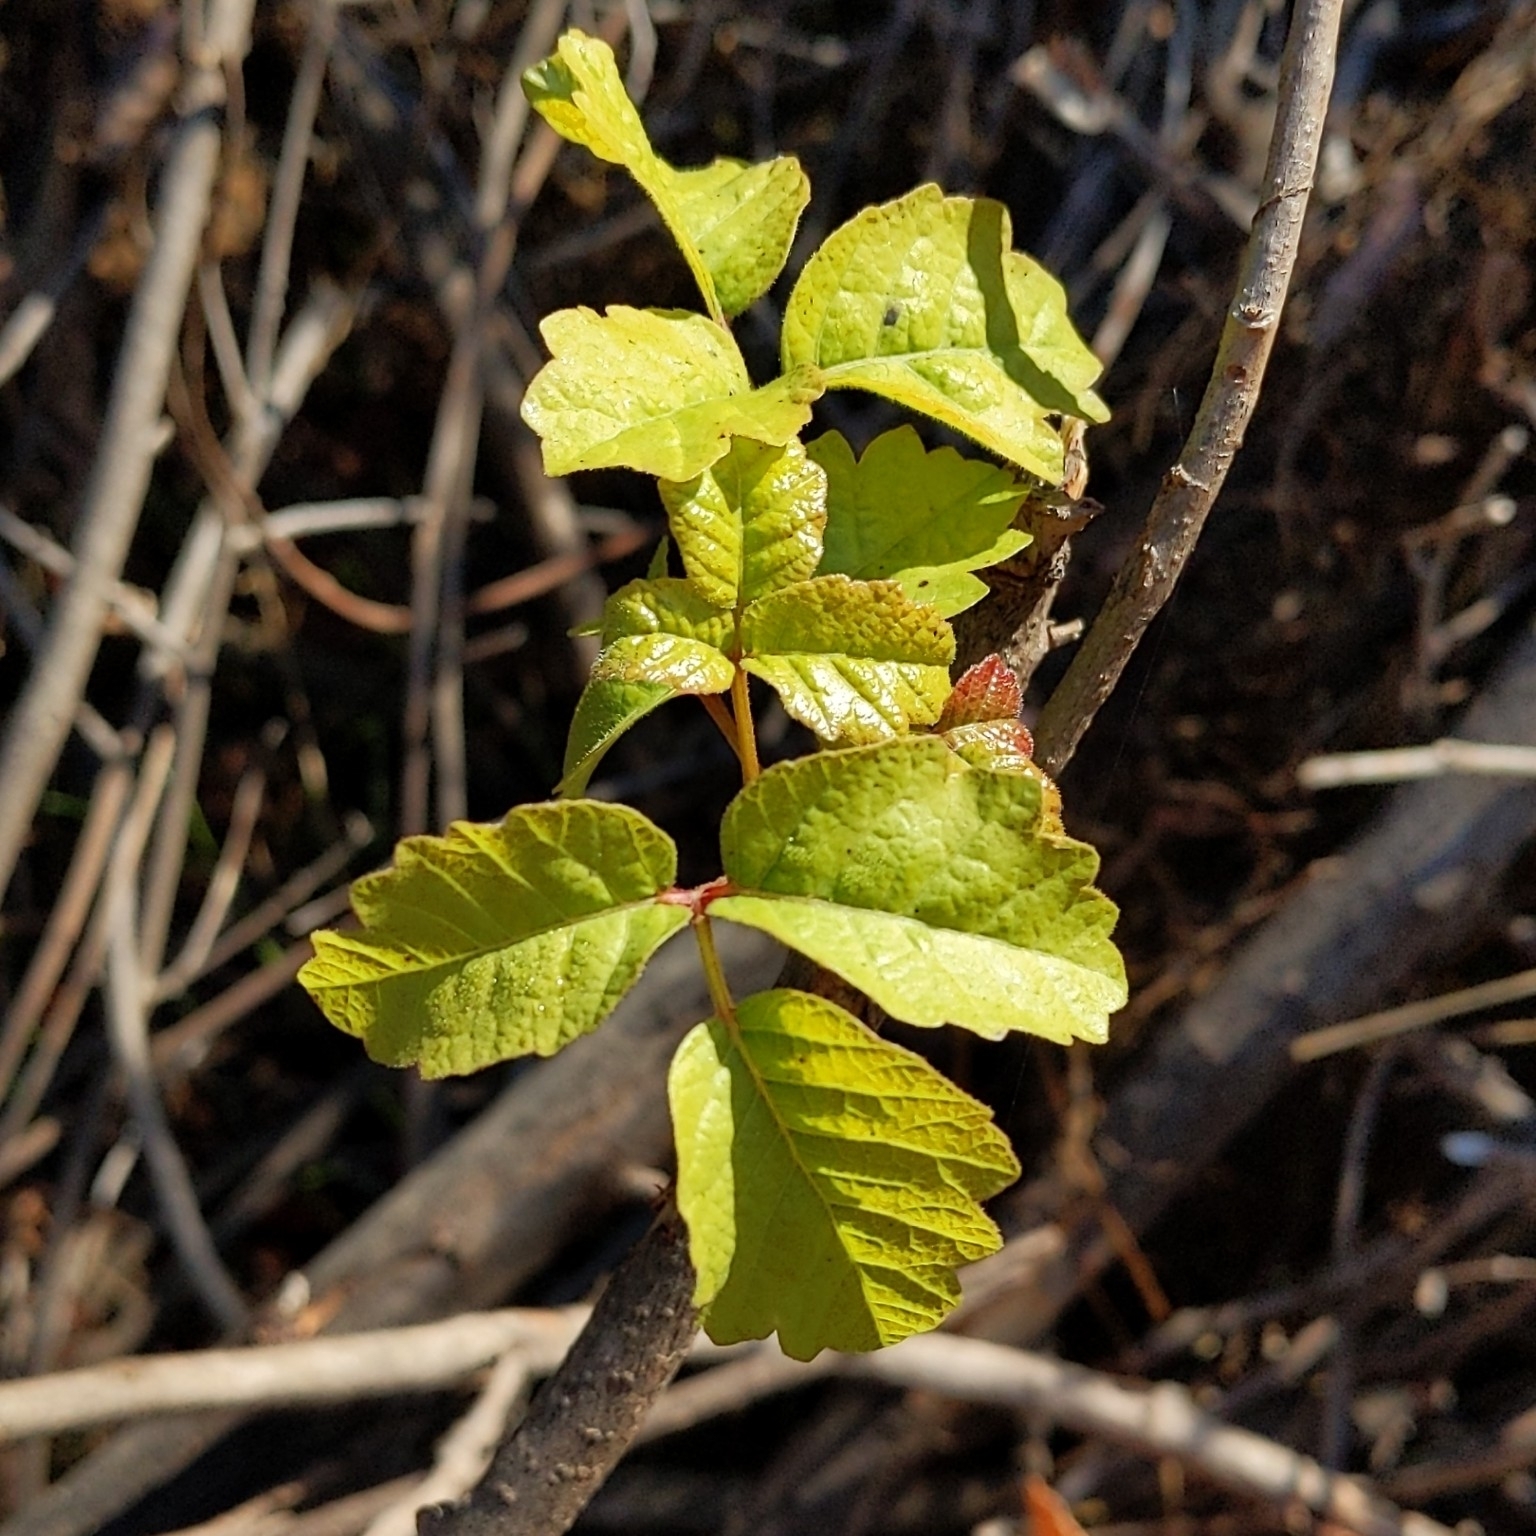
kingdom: Plantae
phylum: Tracheophyta
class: Magnoliopsida
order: Sapindales
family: Anacardiaceae
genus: Toxicodendron
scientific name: Toxicodendron diversilobum
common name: Pacific poison-oak
